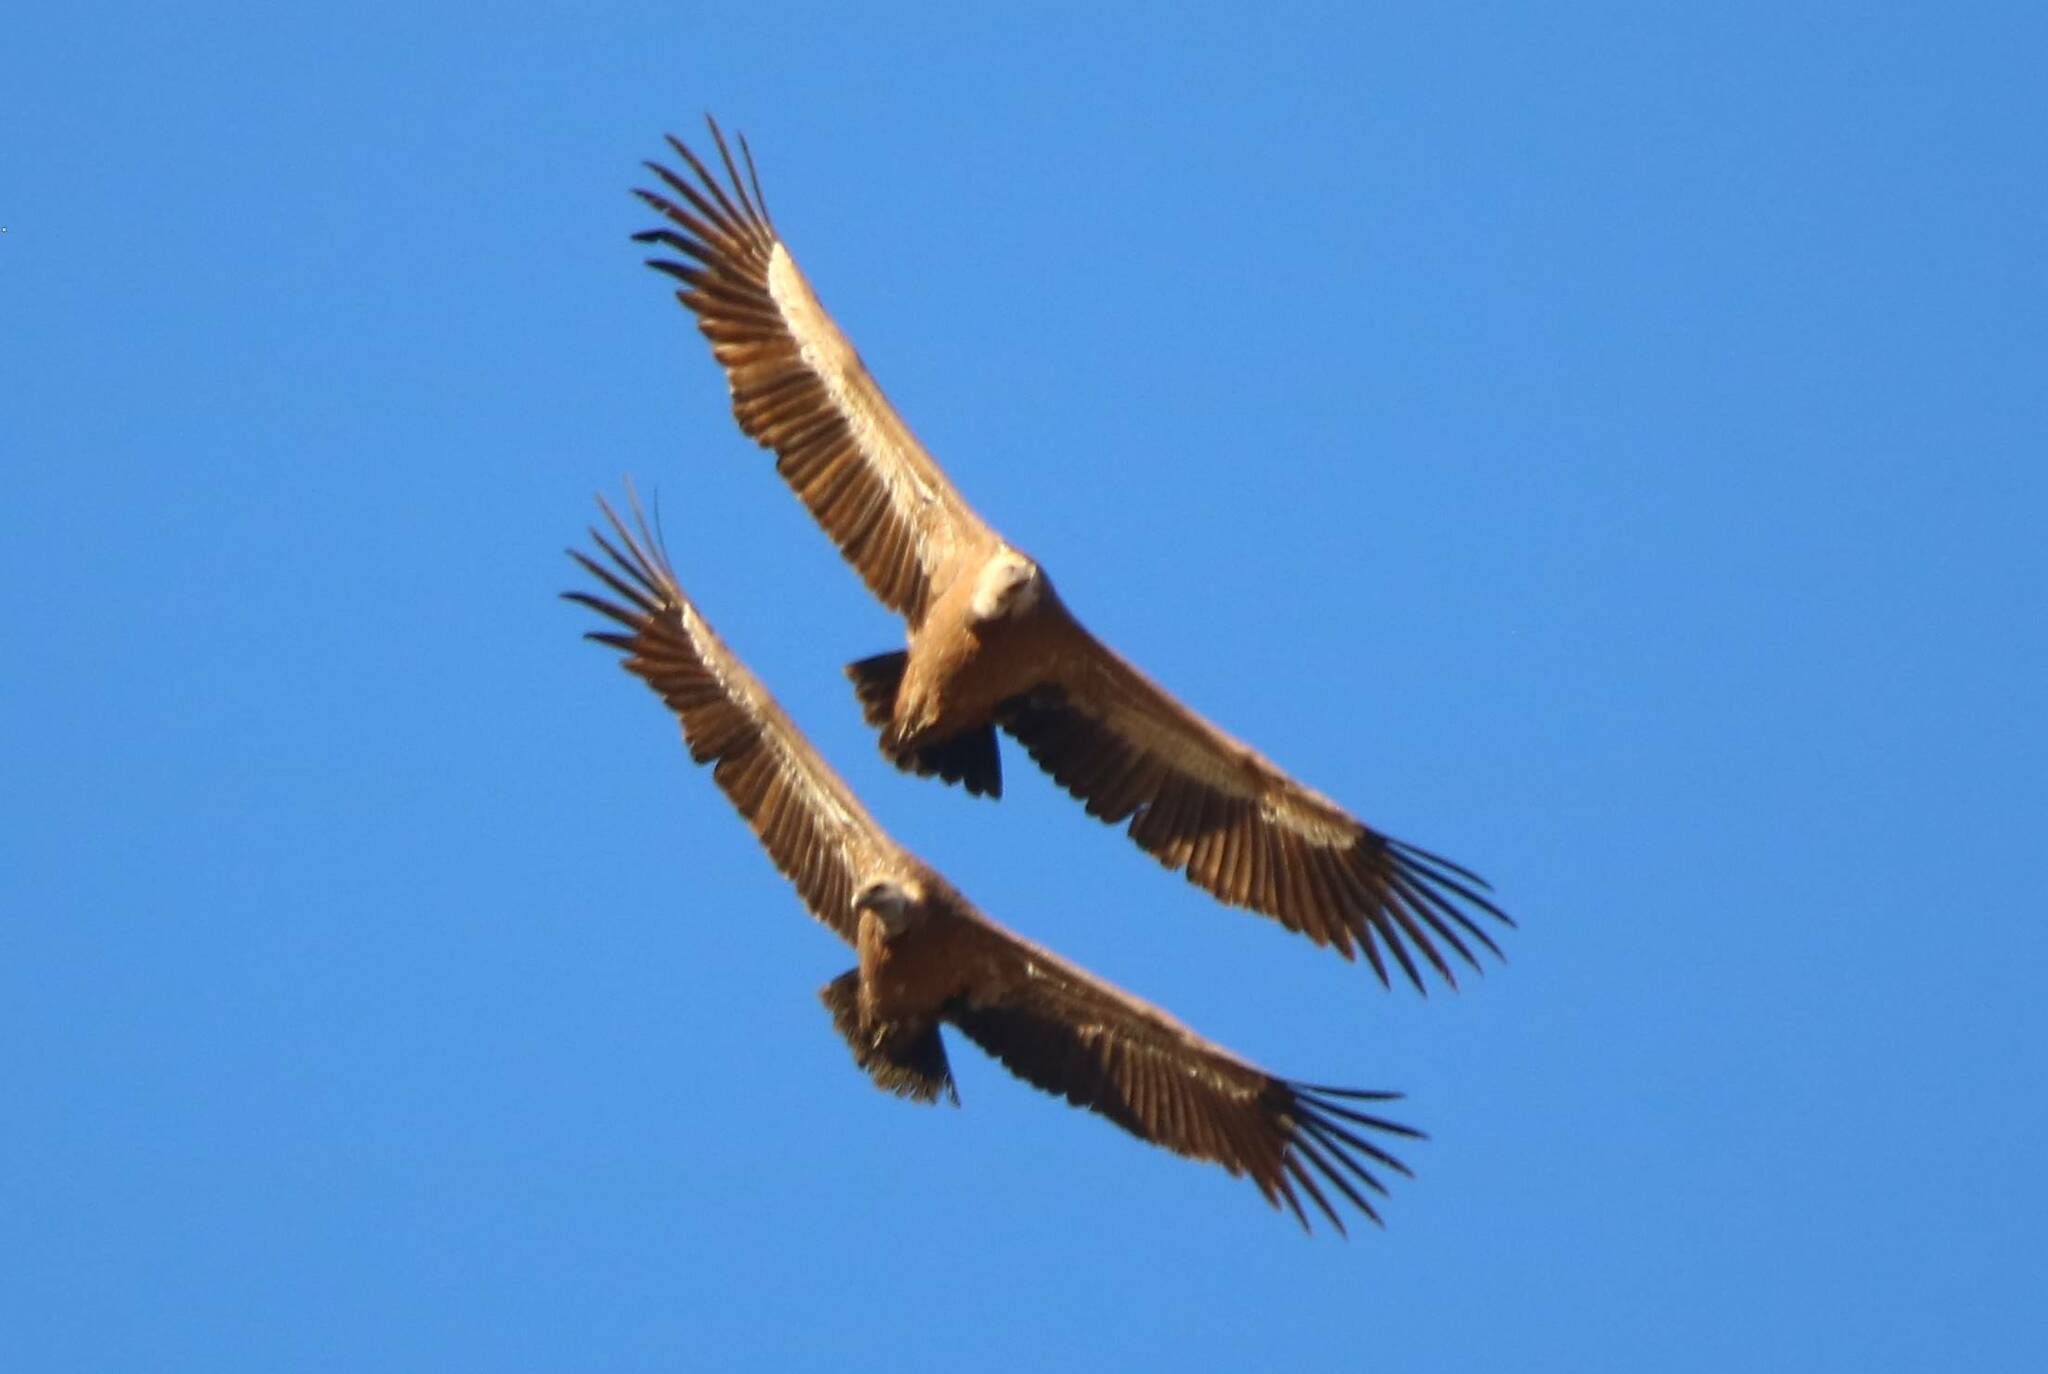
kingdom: Animalia
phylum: Chordata
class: Aves
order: Accipitriformes
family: Accipitridae
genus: Gyps
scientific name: Gyps fulvus
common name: Griffon vulture
